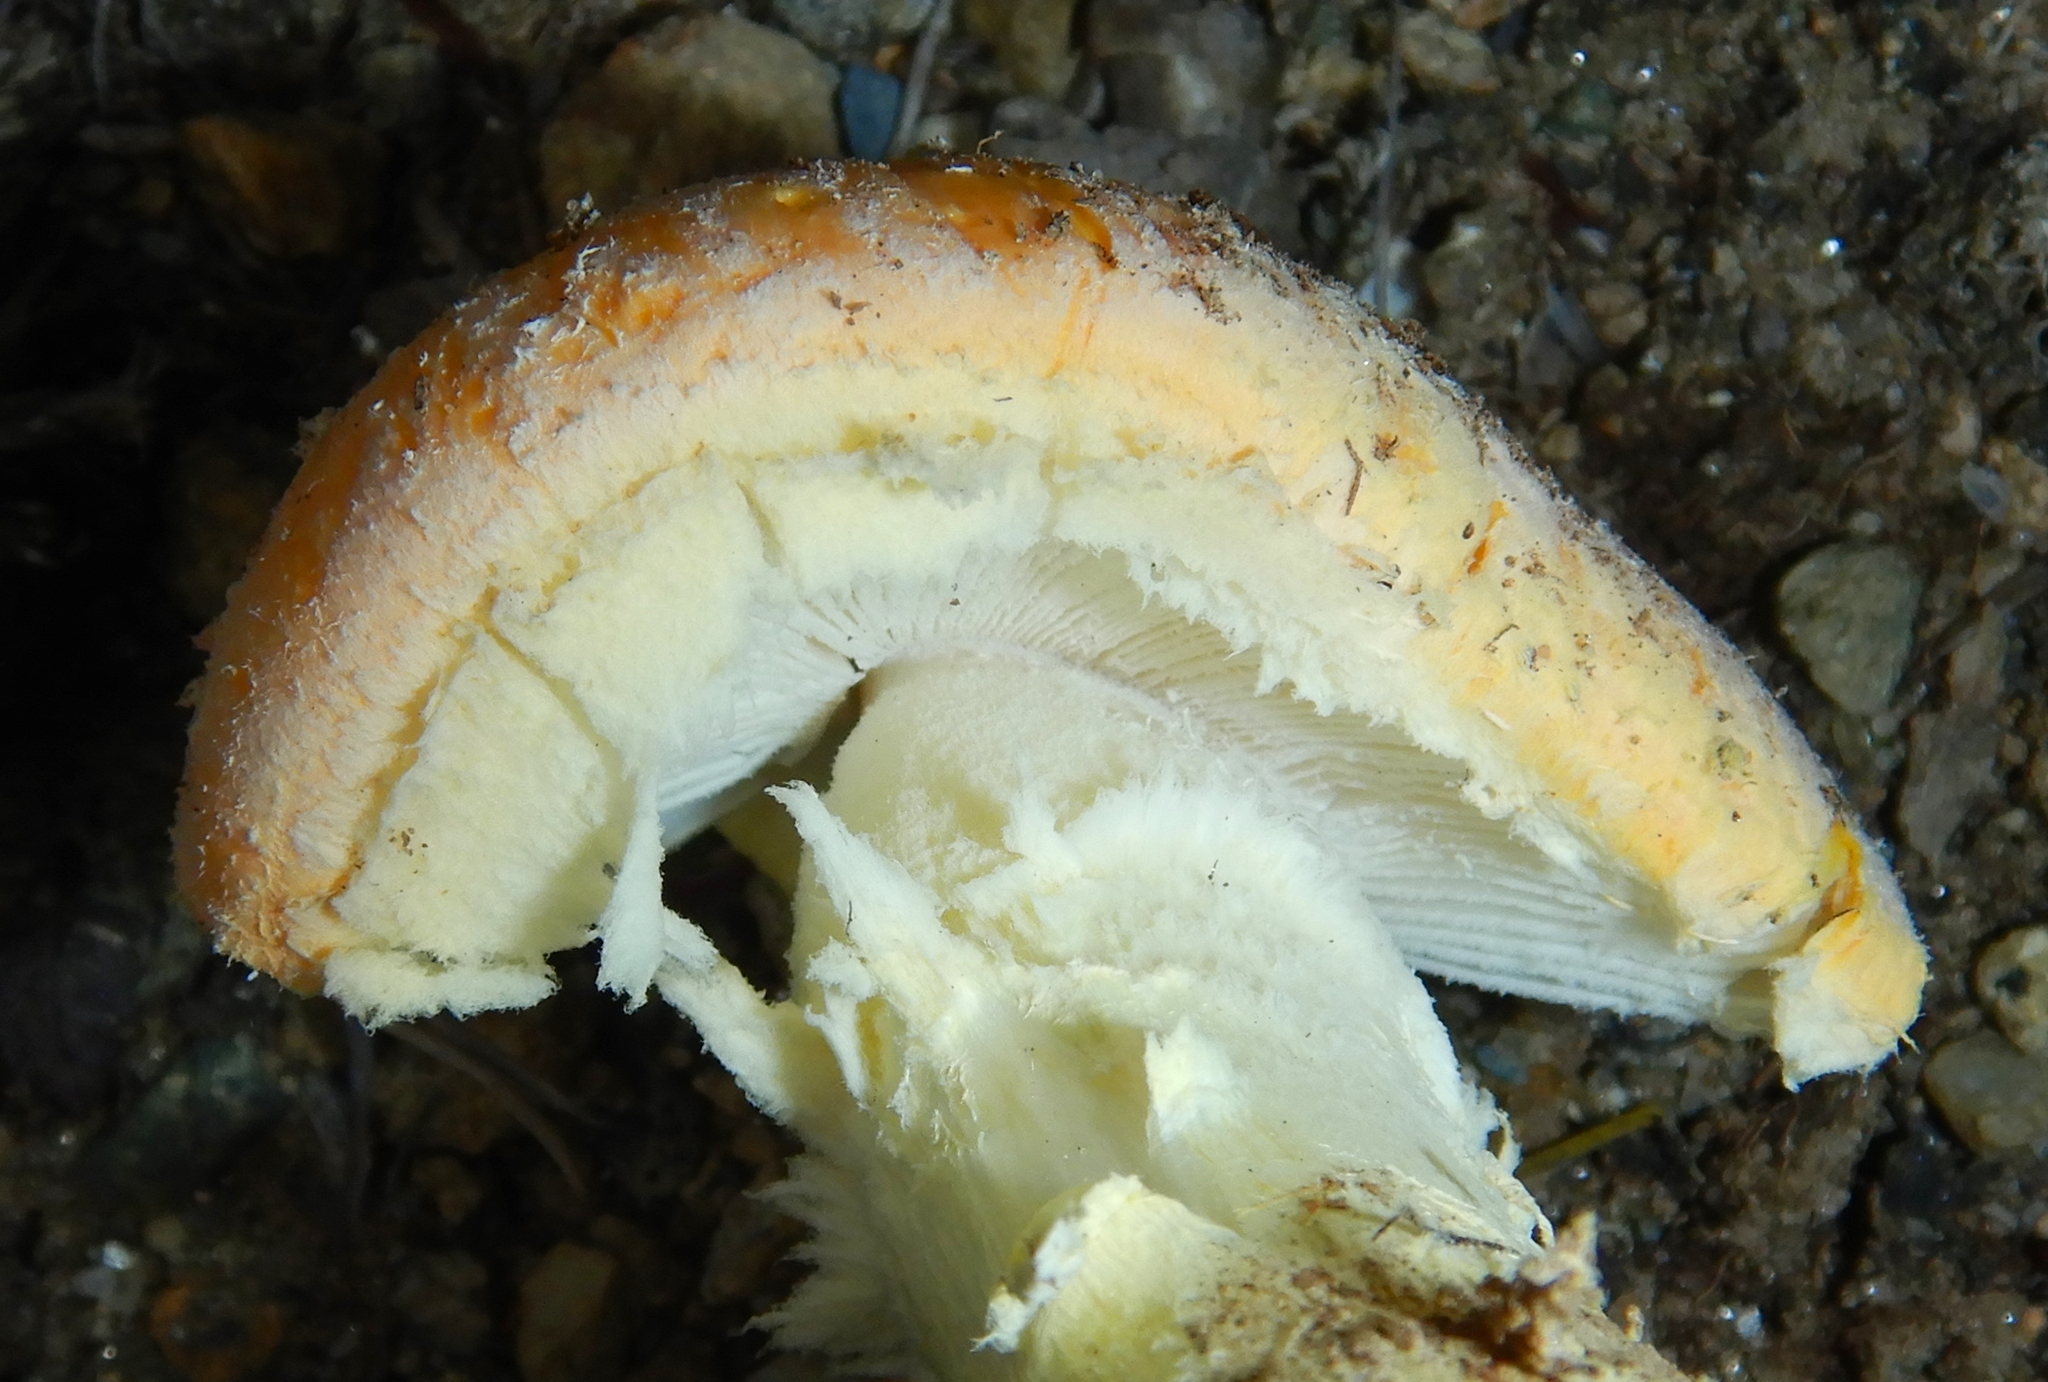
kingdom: Fungi
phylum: Basidiomycota
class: Agaricomycetes
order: Agaricales
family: Amanitaceae
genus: Amanita
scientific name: Amanita wellsii
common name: Salmon amanita
